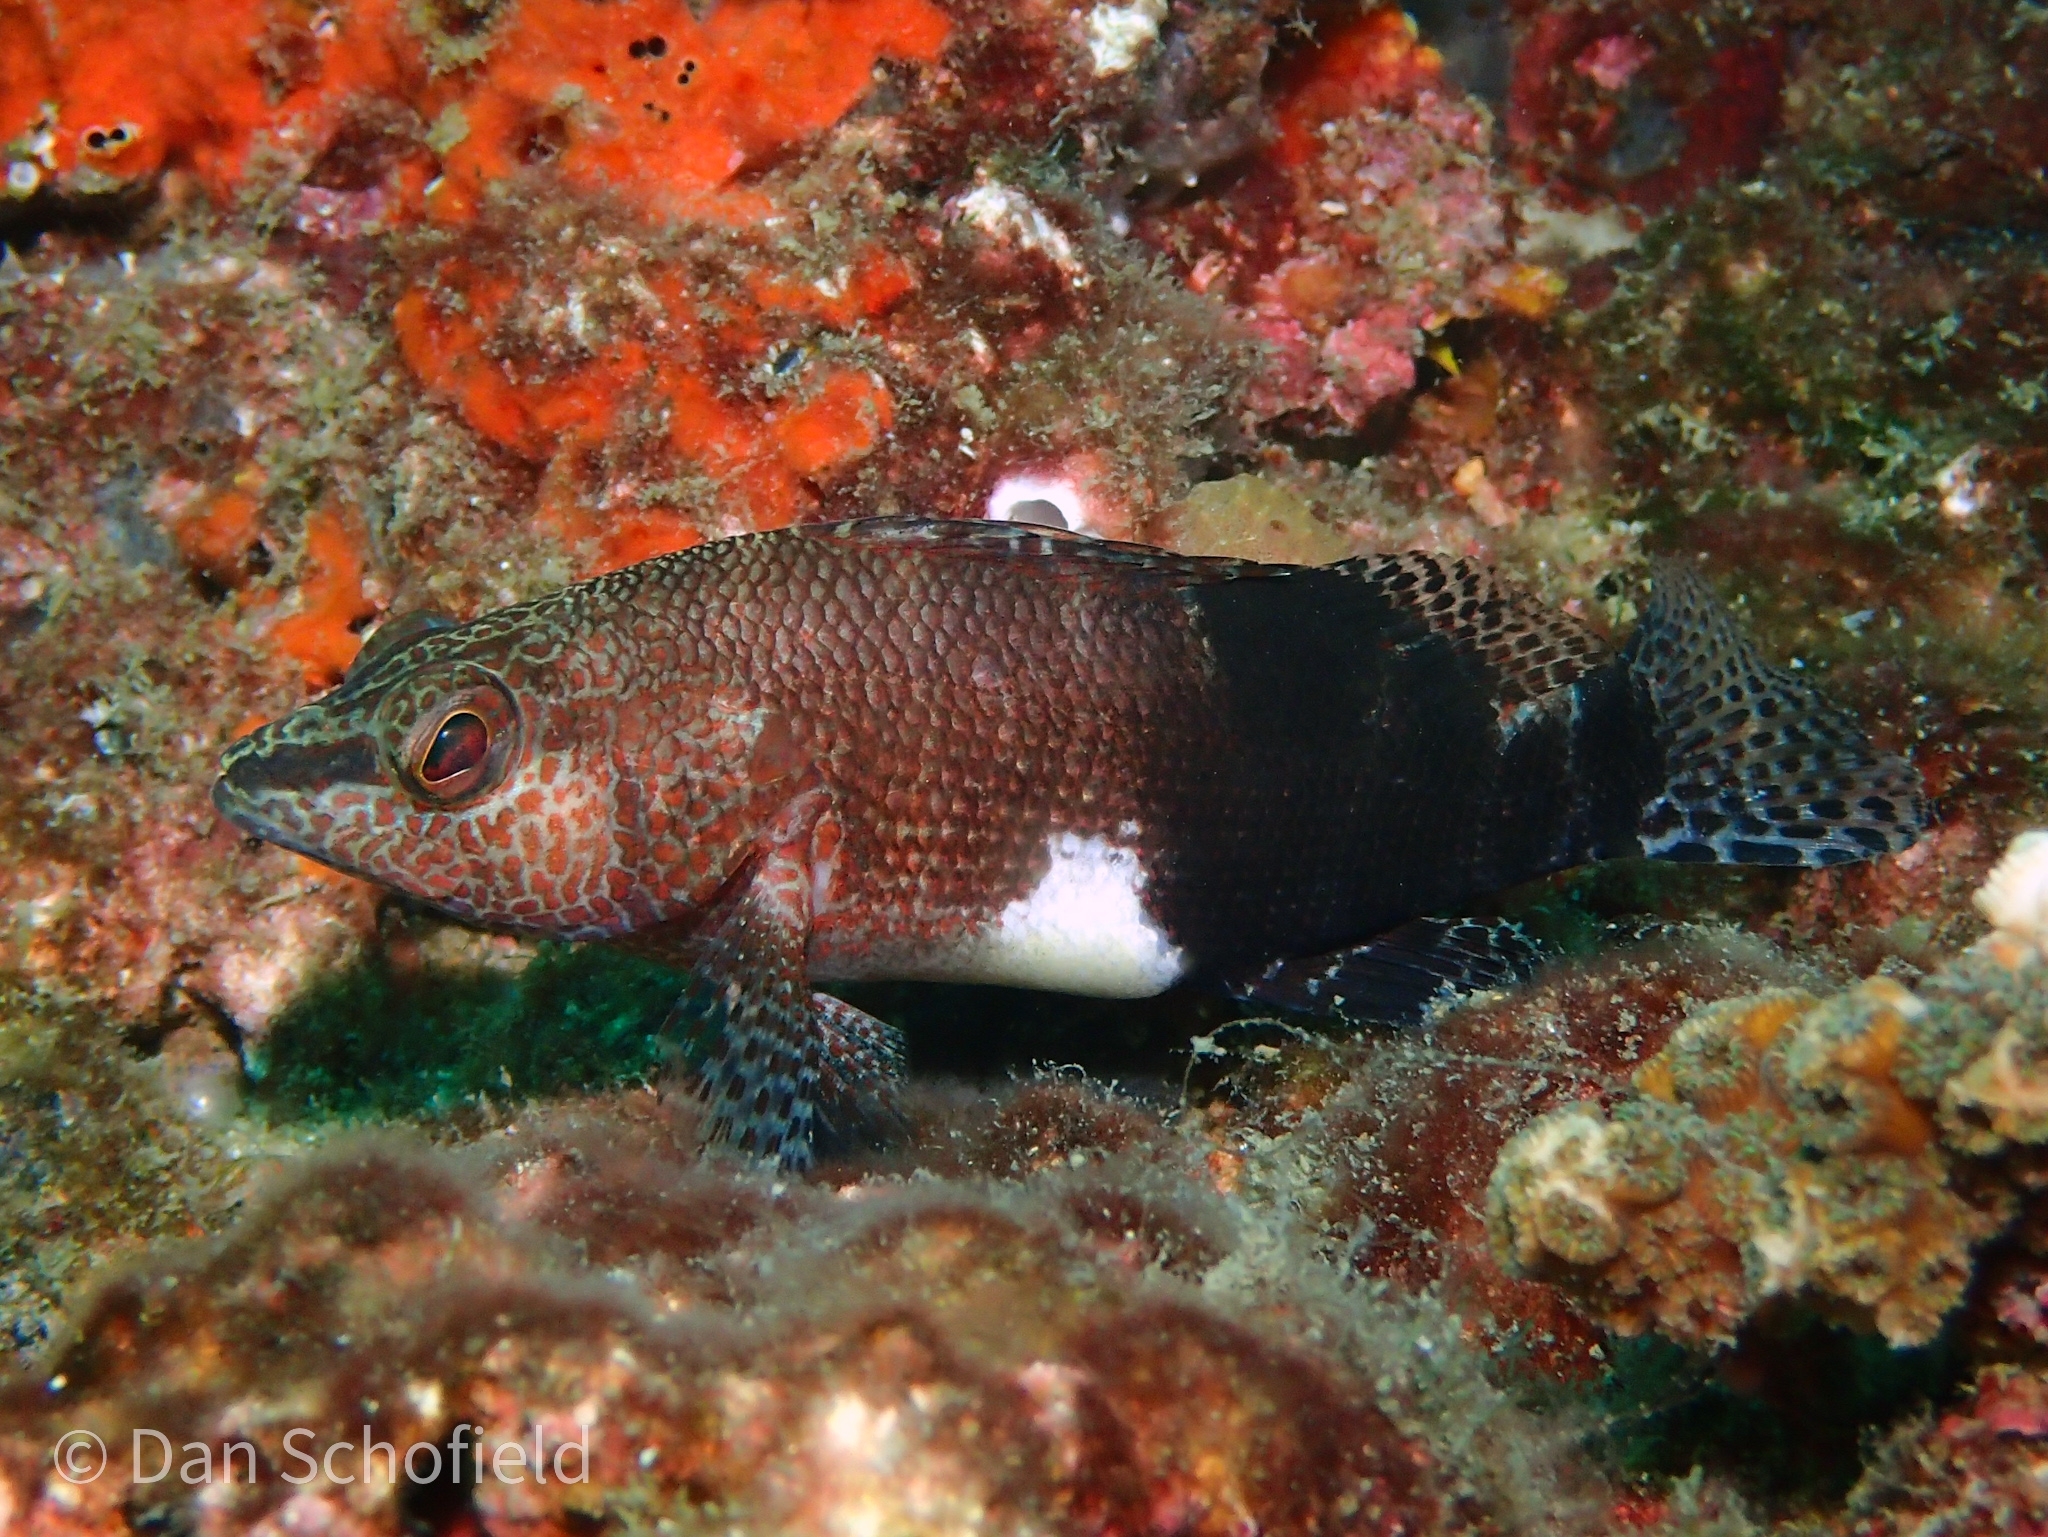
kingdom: Animalia
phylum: Chordata
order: Perciformes
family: Serranidae
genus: Serranus
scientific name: Serranus subligarius
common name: Belted sandfish
